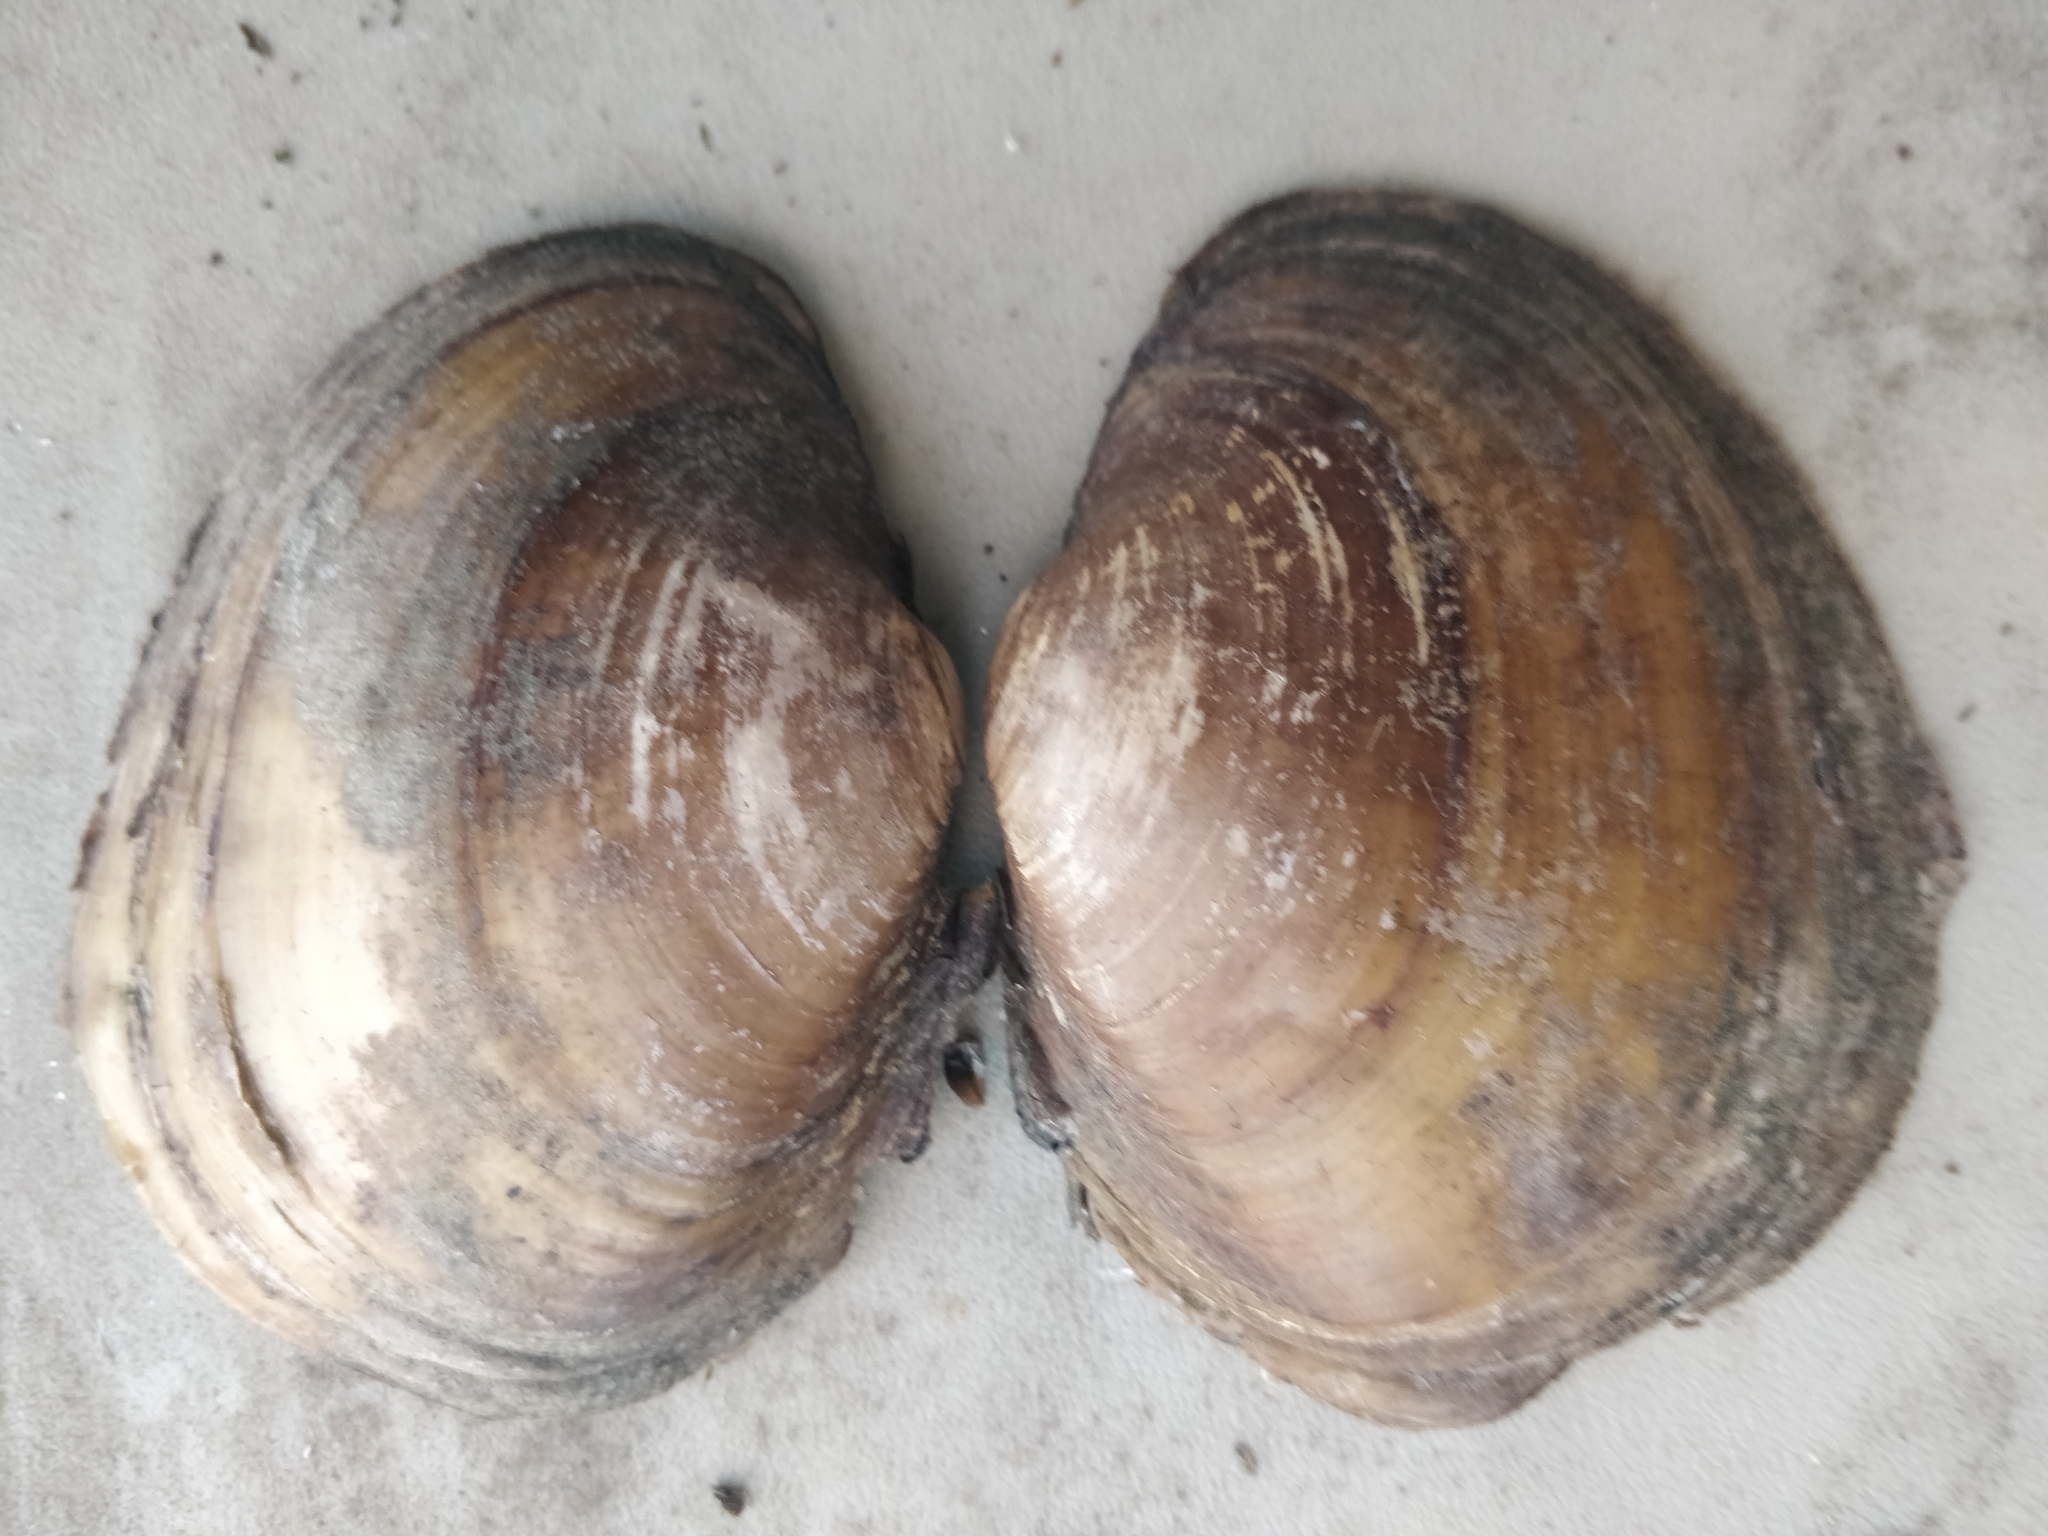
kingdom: Animalia
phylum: Mollusca
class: Bivalvia
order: Unionida
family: Unionidae
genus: Lampsilis
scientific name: Lampsilis cardium
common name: Plain pocketbook
